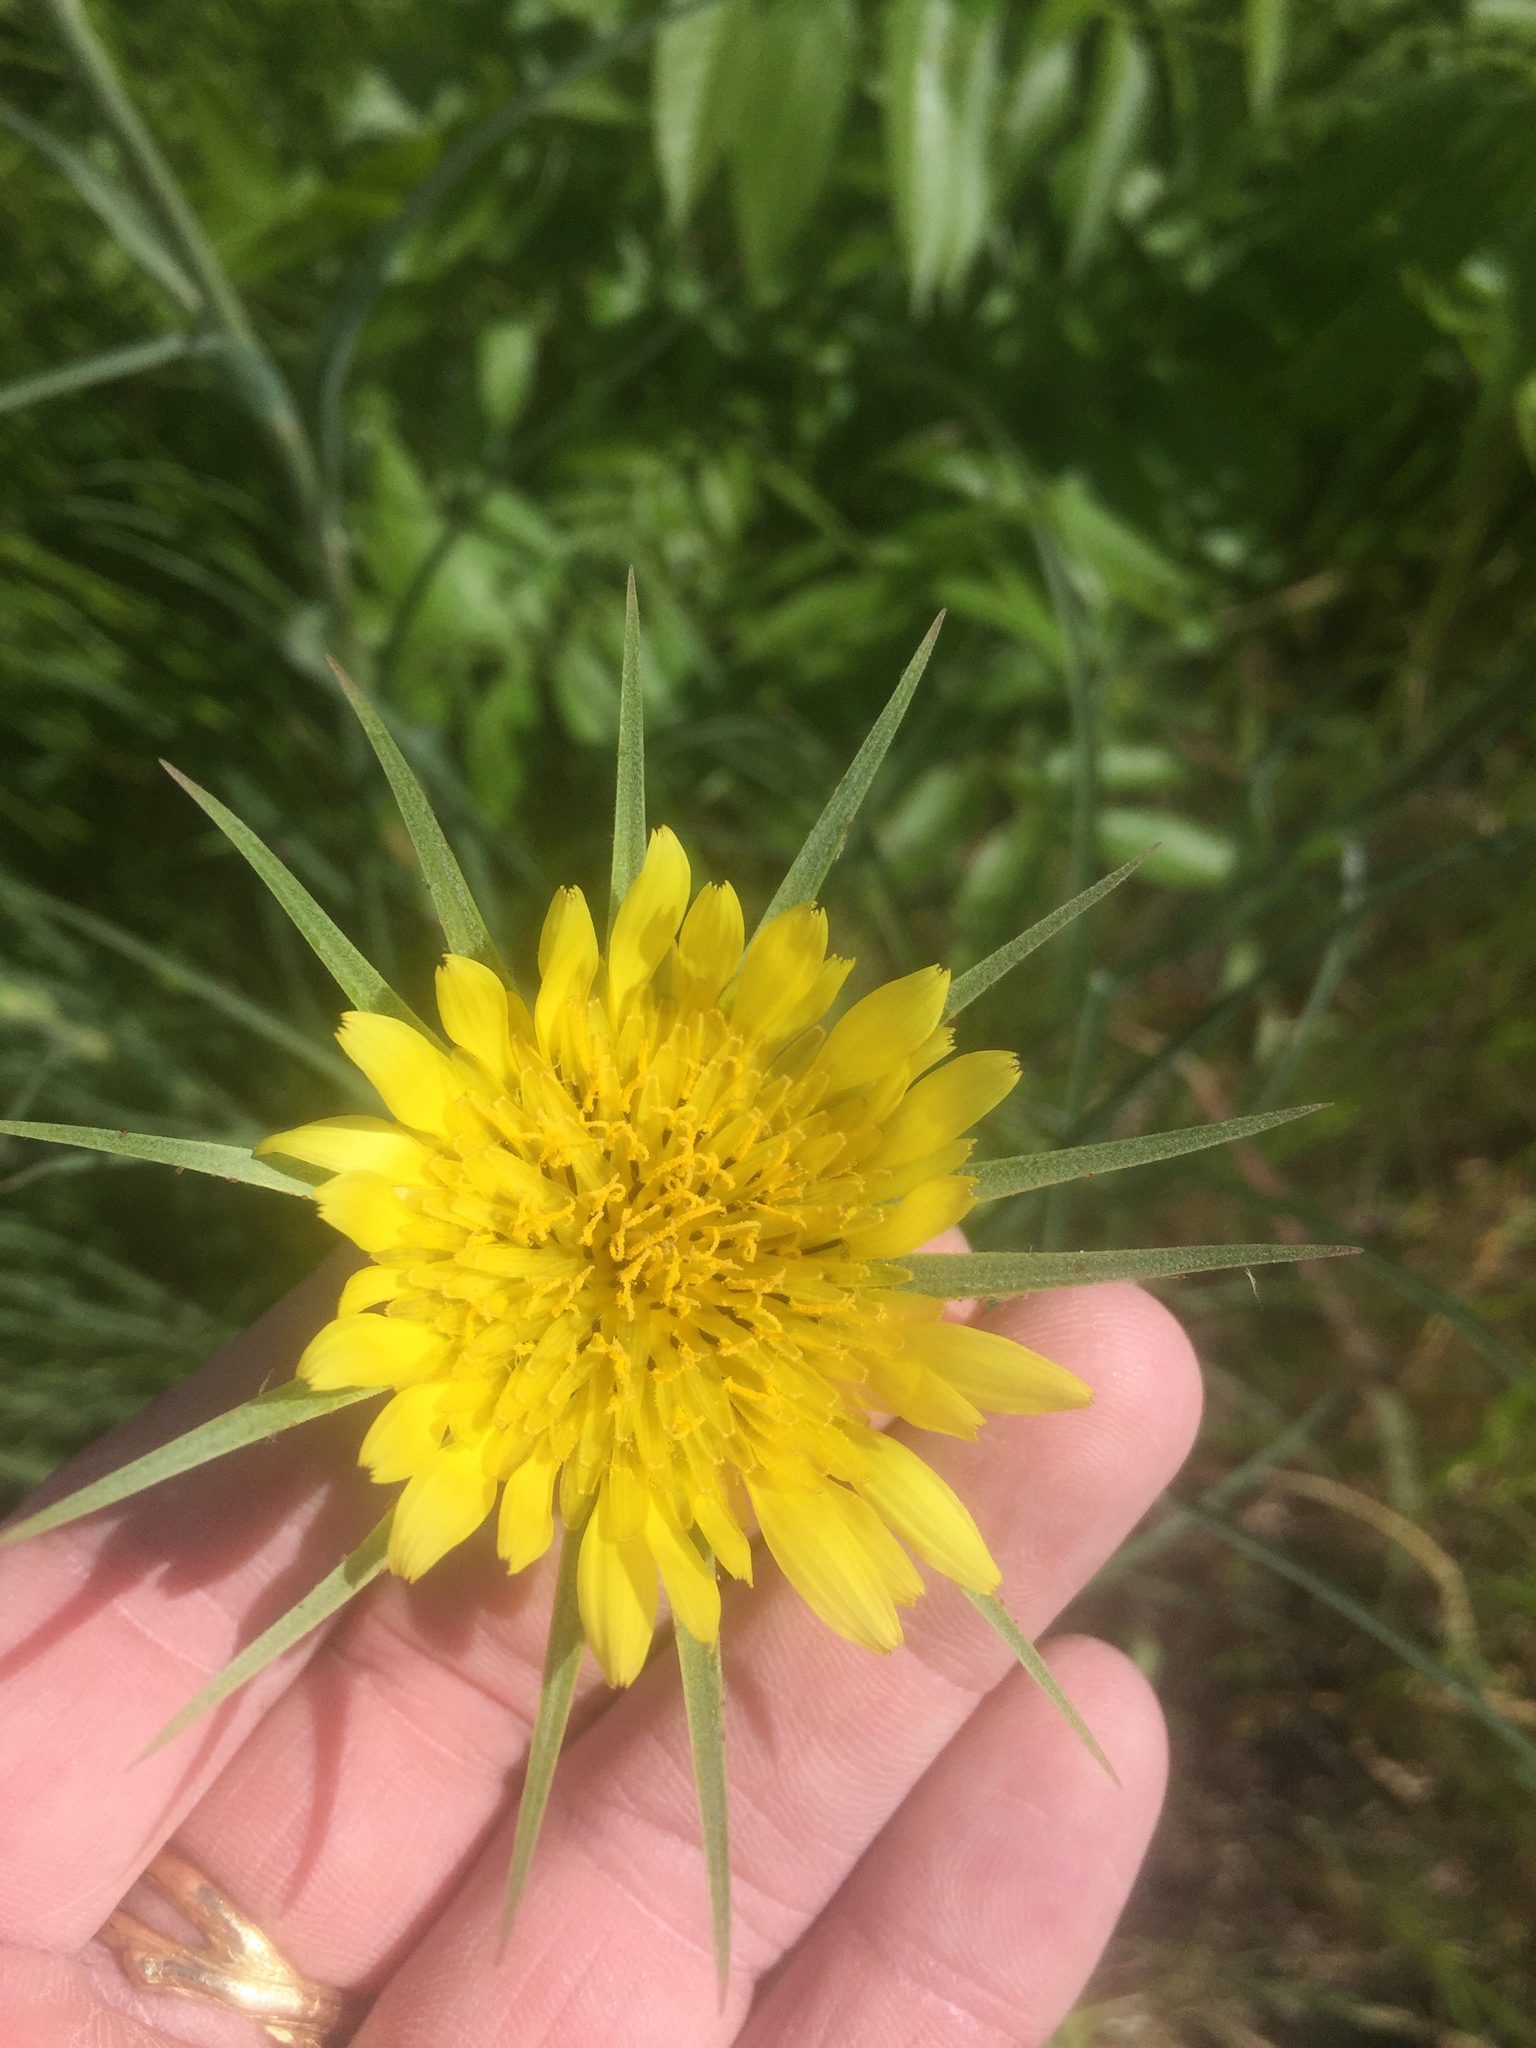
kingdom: Plantae
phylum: Tracheophyta
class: Magnoliopsida
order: Asterales
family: Asteraceae
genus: Tragopogon
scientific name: Tragopogon dubius
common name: Yellow salsify
